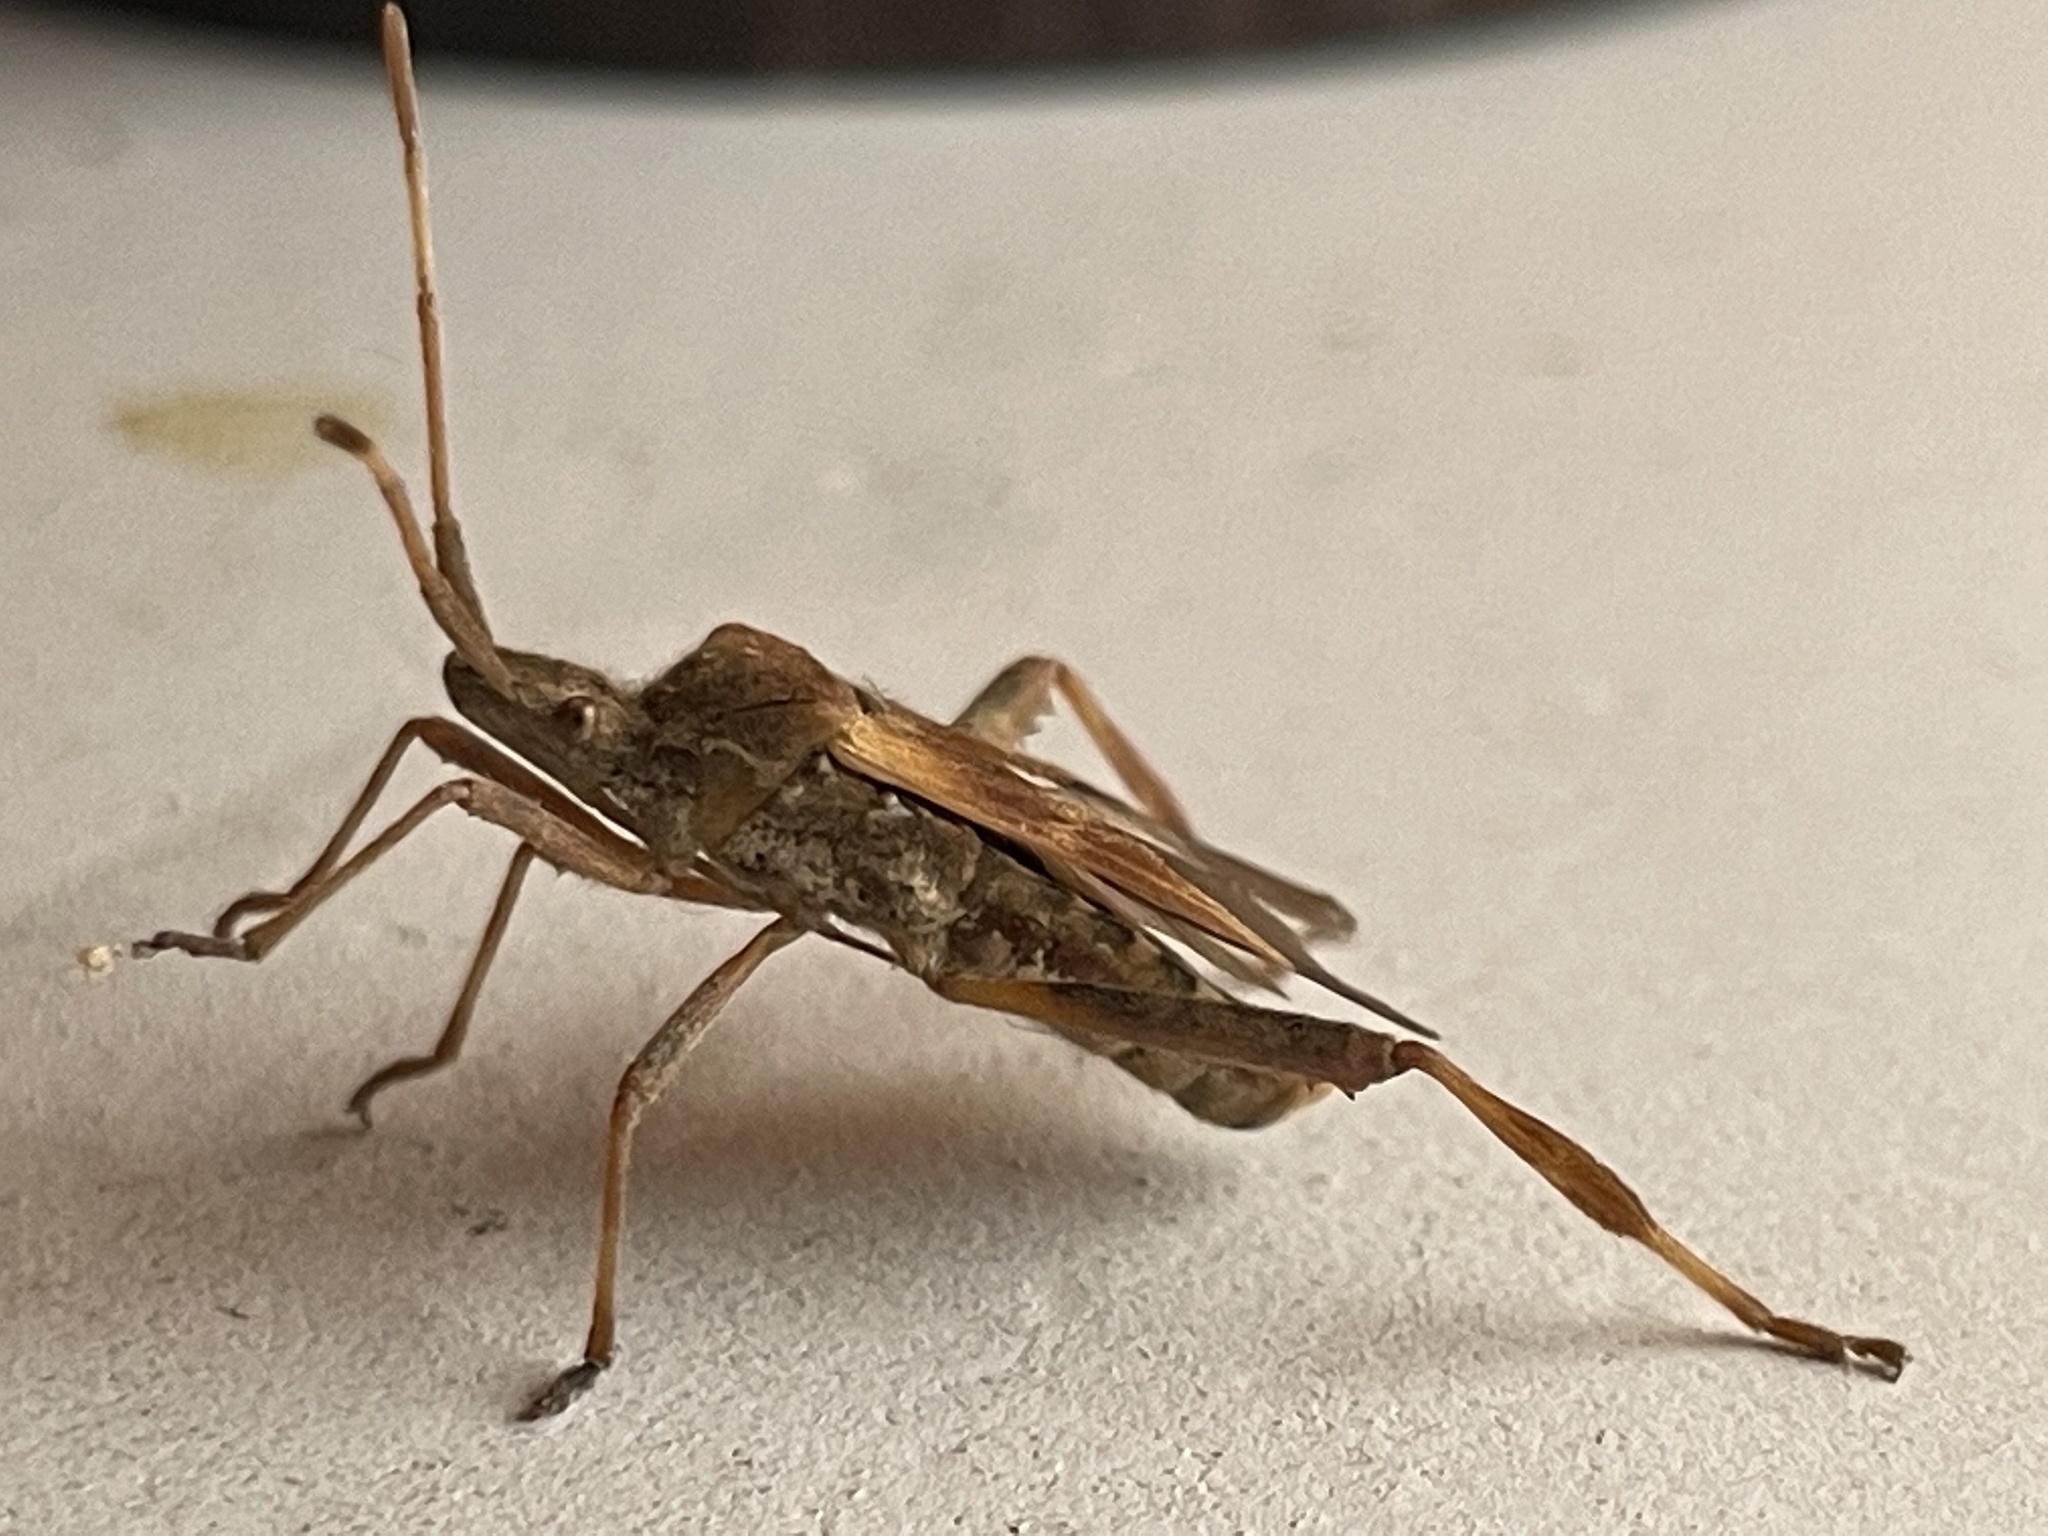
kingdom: Animalia
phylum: Arthropoda
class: Insecta
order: Hemiptera
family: Coreidae
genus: Leptoglossus
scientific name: Leptoglossus occidentalis
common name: Western conifer-seed bug
